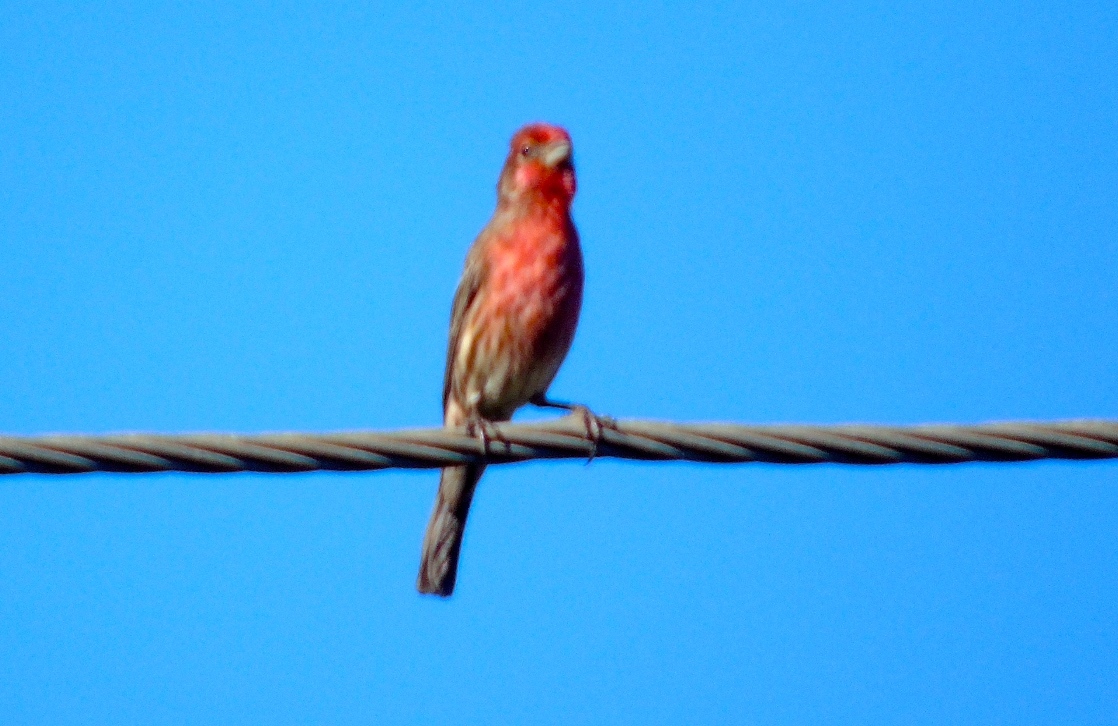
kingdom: Animalia
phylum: Chordata
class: Aves
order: Passeriformes
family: Fringillidae
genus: Haemorhous
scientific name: Haemorhous mexicanus
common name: House finch
